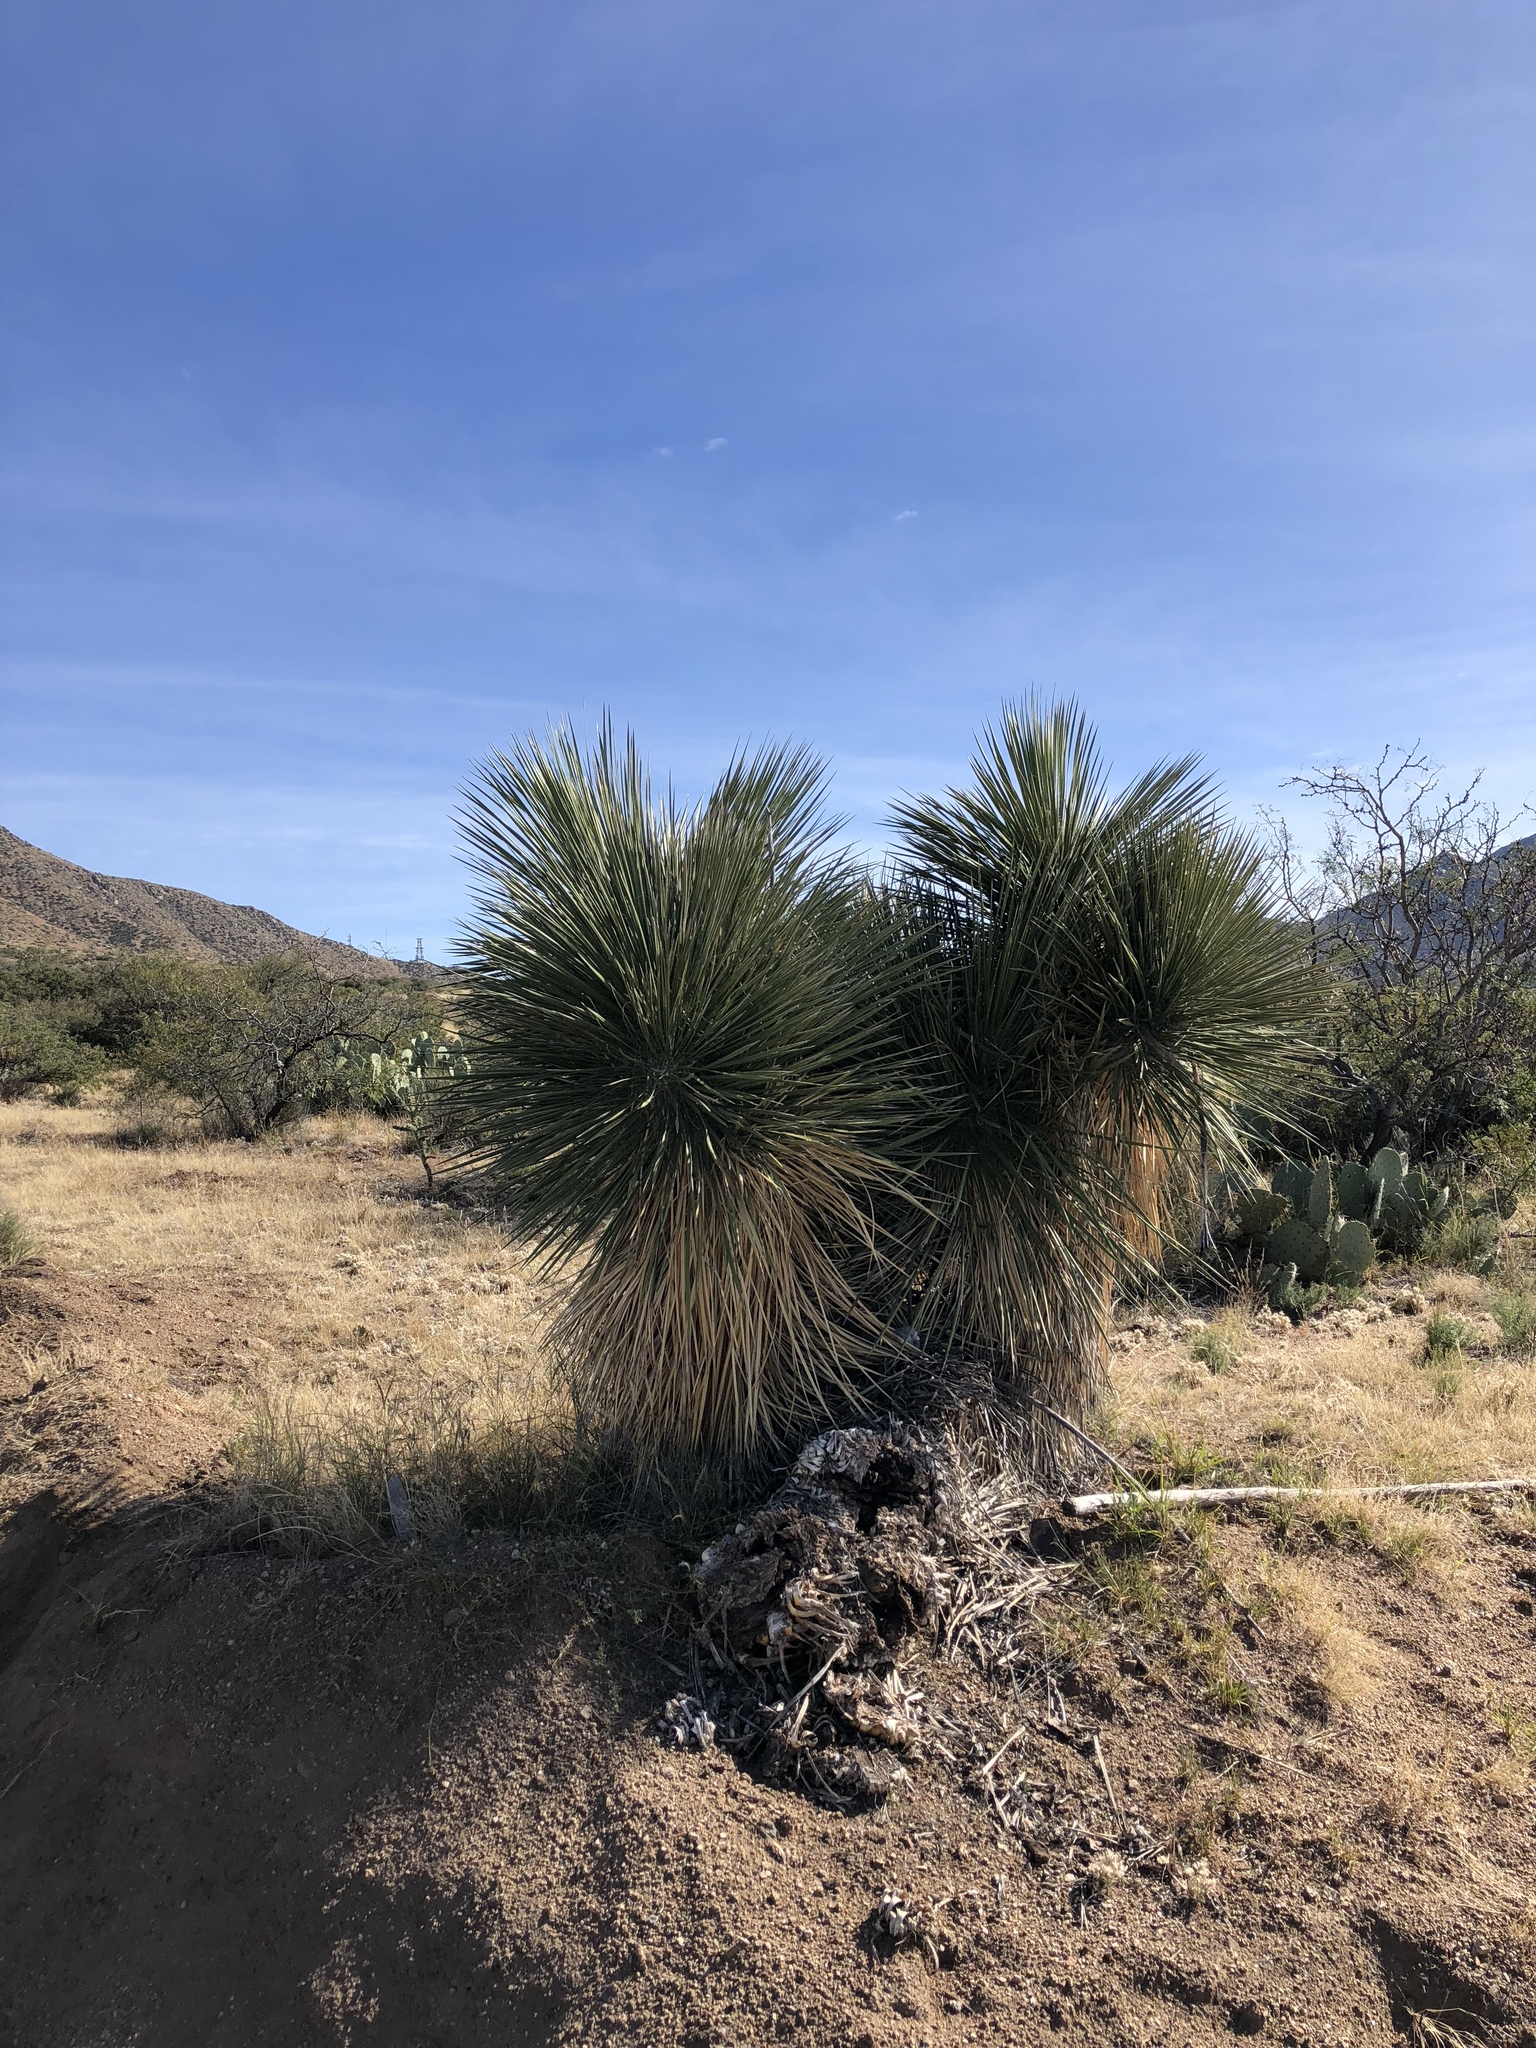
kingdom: Plantae
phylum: Tracheophyta
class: Liliopsida
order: Asparagales
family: Asparagaceae
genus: Yucca
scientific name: Yucca elata
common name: Palmella
